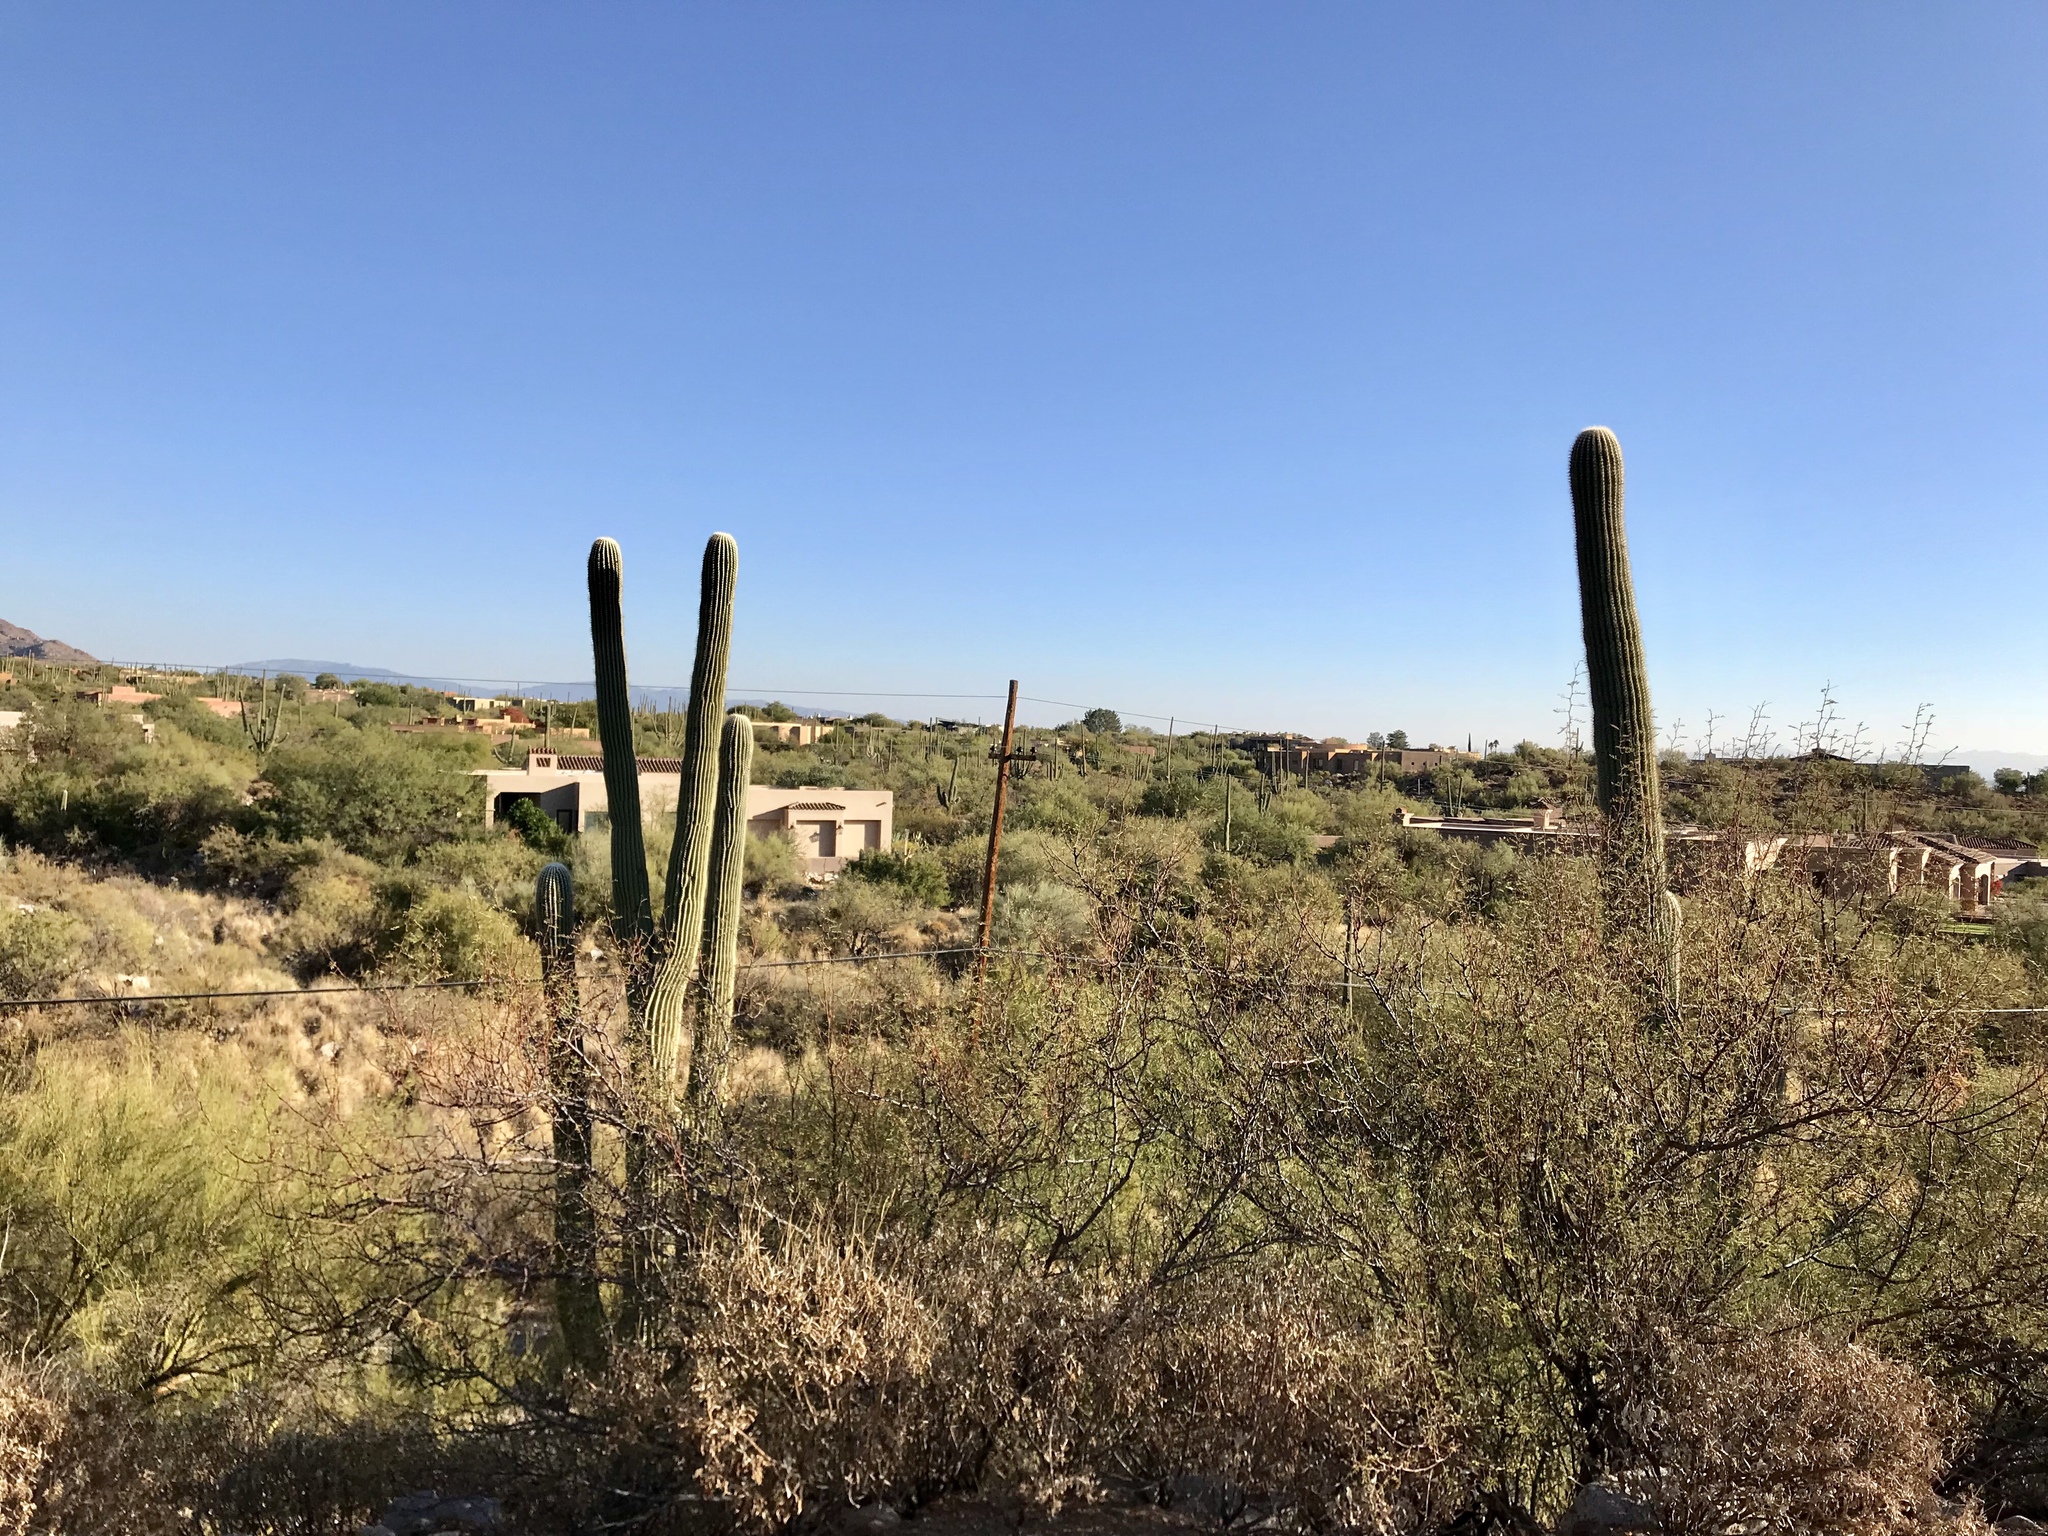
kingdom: Plantae
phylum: Tracheophyta
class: Magnoliopsida
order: Caryophyllales
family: Cactaceae
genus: Carnegiea
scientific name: Carnegiea gigantea
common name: Saguaro
